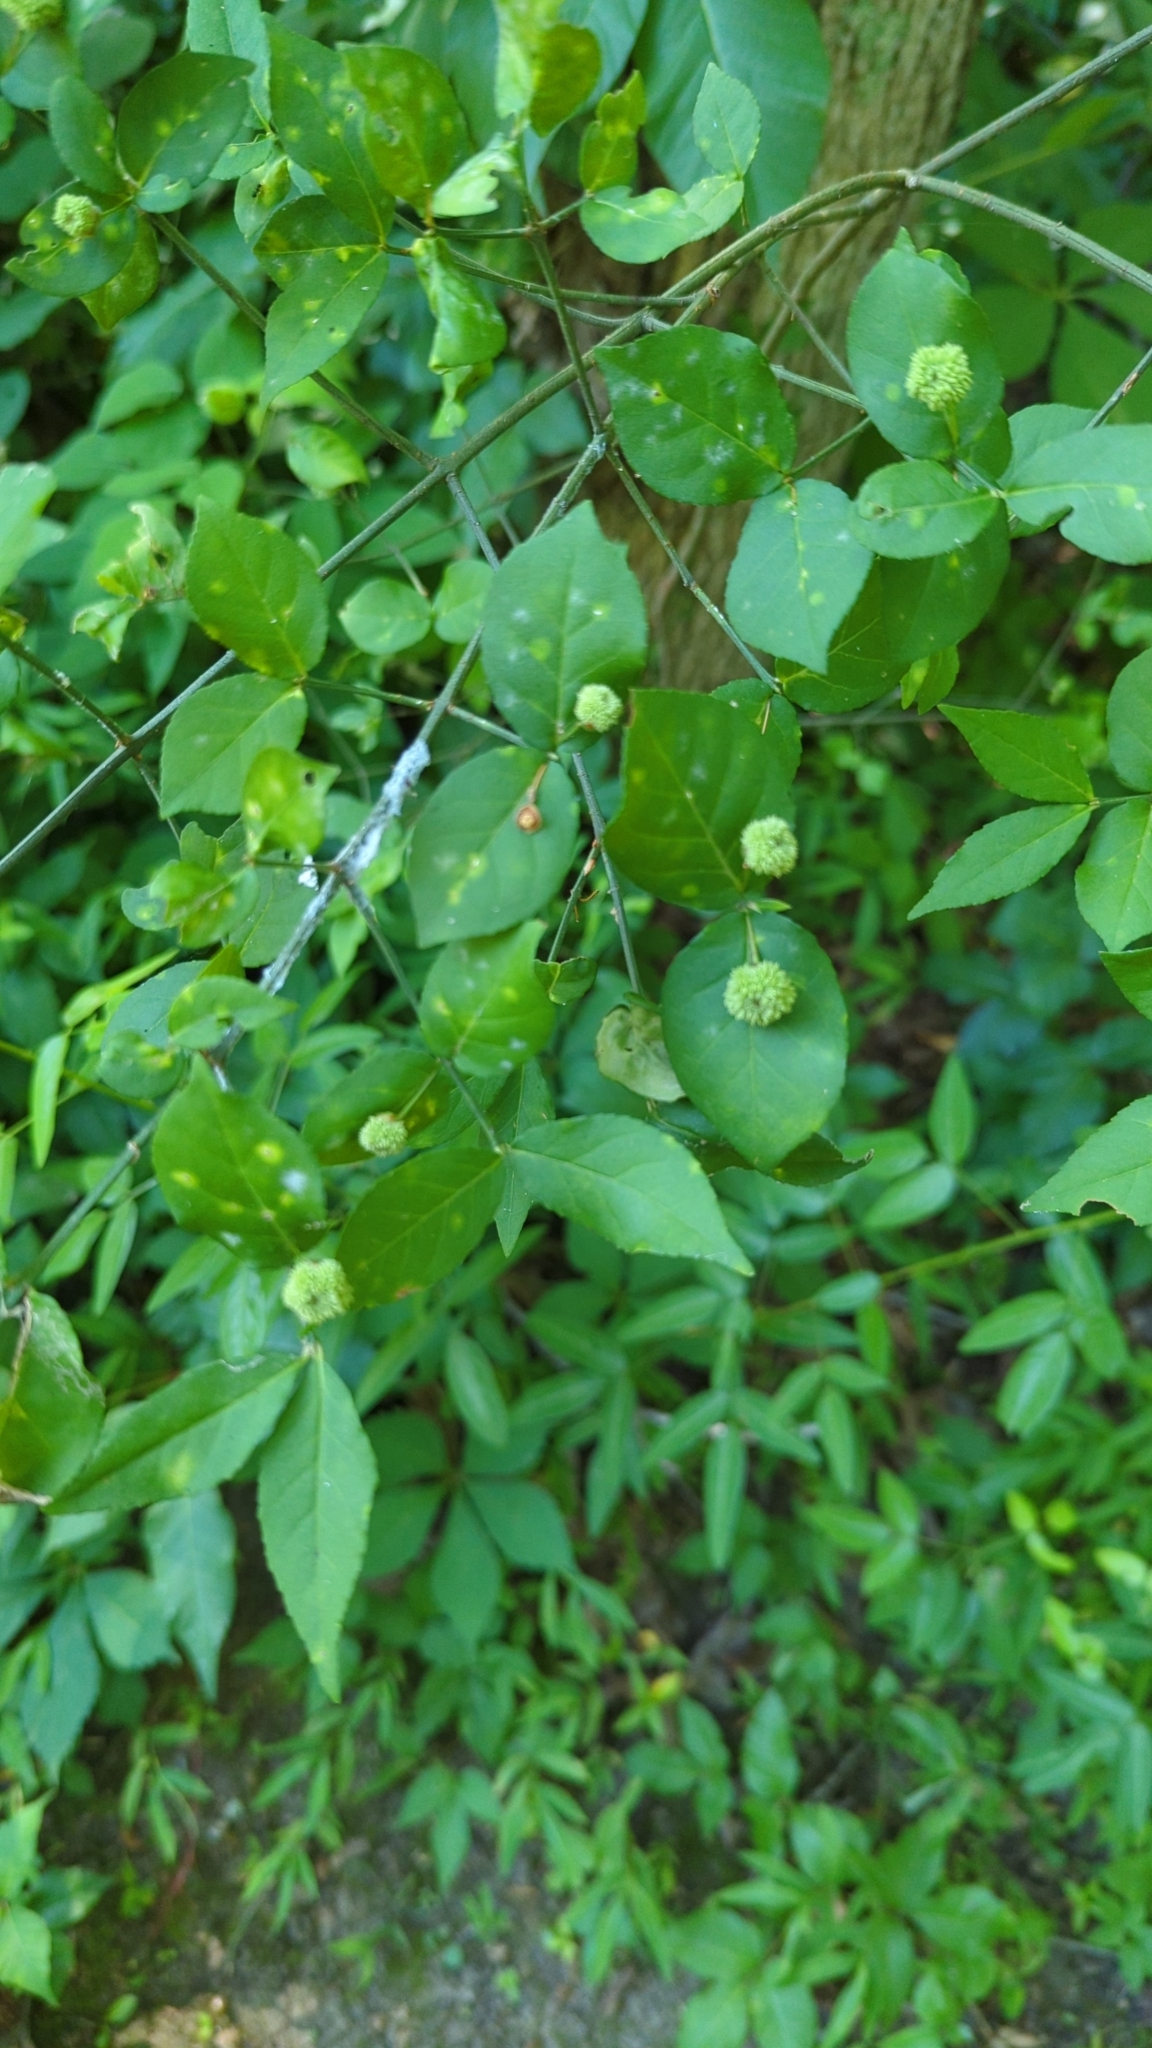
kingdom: Plantae
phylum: Tracheophyta
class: Magnoliopsida
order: Celastrales
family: Celastraceae
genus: Euonymus
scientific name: Euonymus americanus
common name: Bursting-heart
